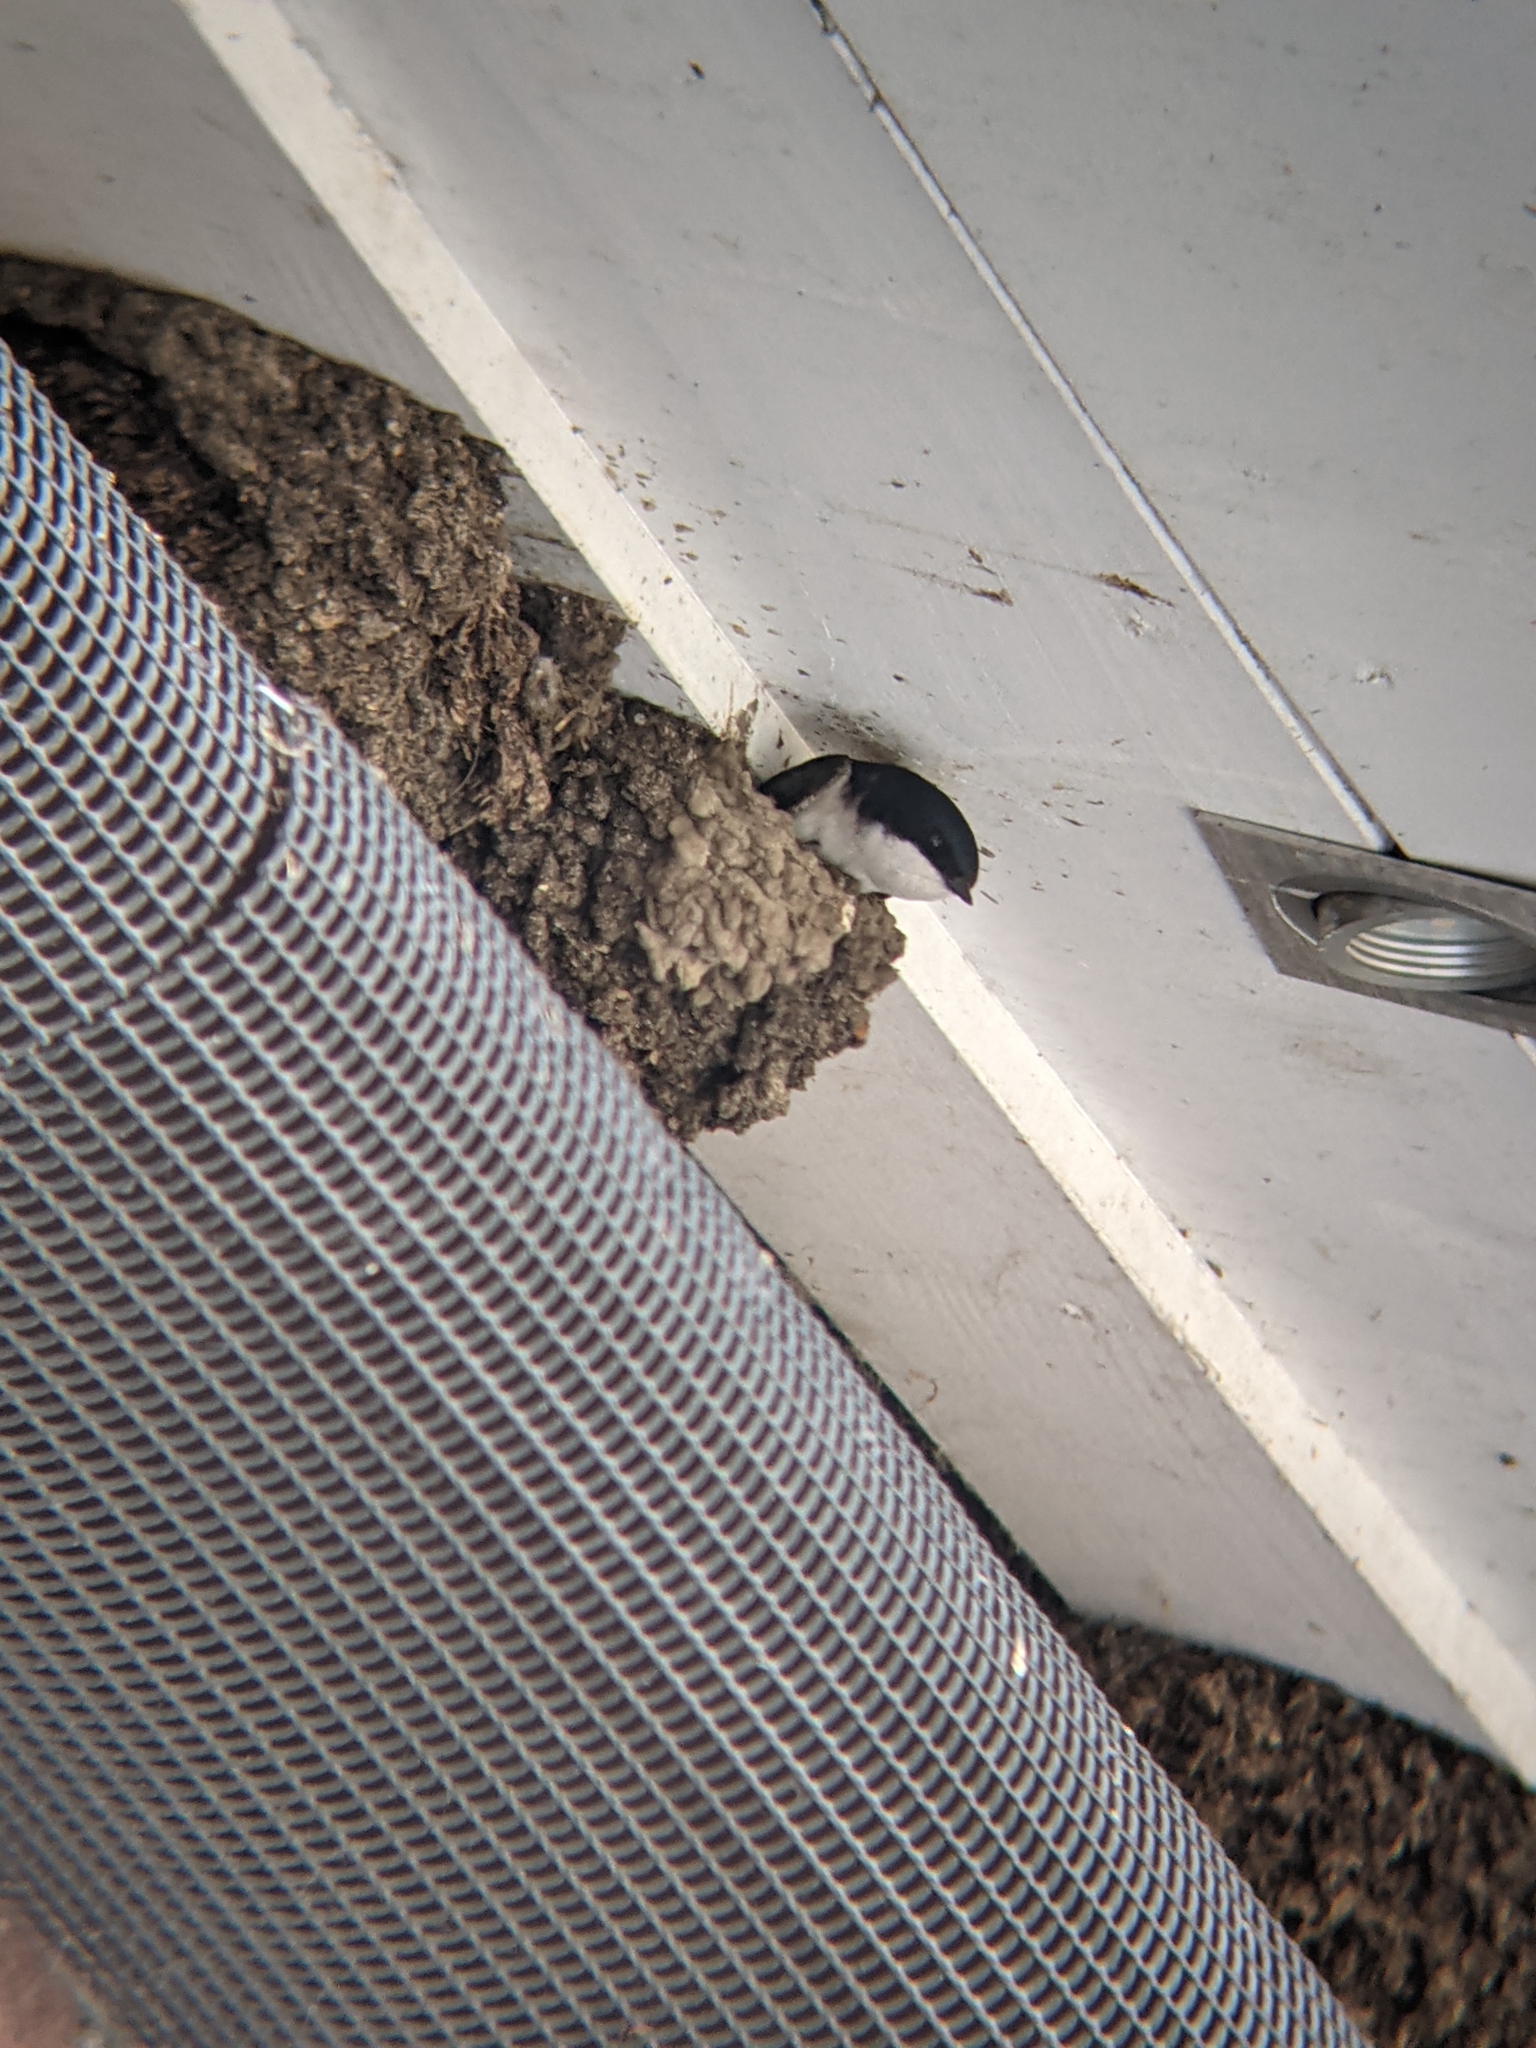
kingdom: Animalia
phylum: Chordata
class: Aves
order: Passeriformes
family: Hirundinidae
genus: Delichon
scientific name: Delichon urbicum
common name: Common house martin
